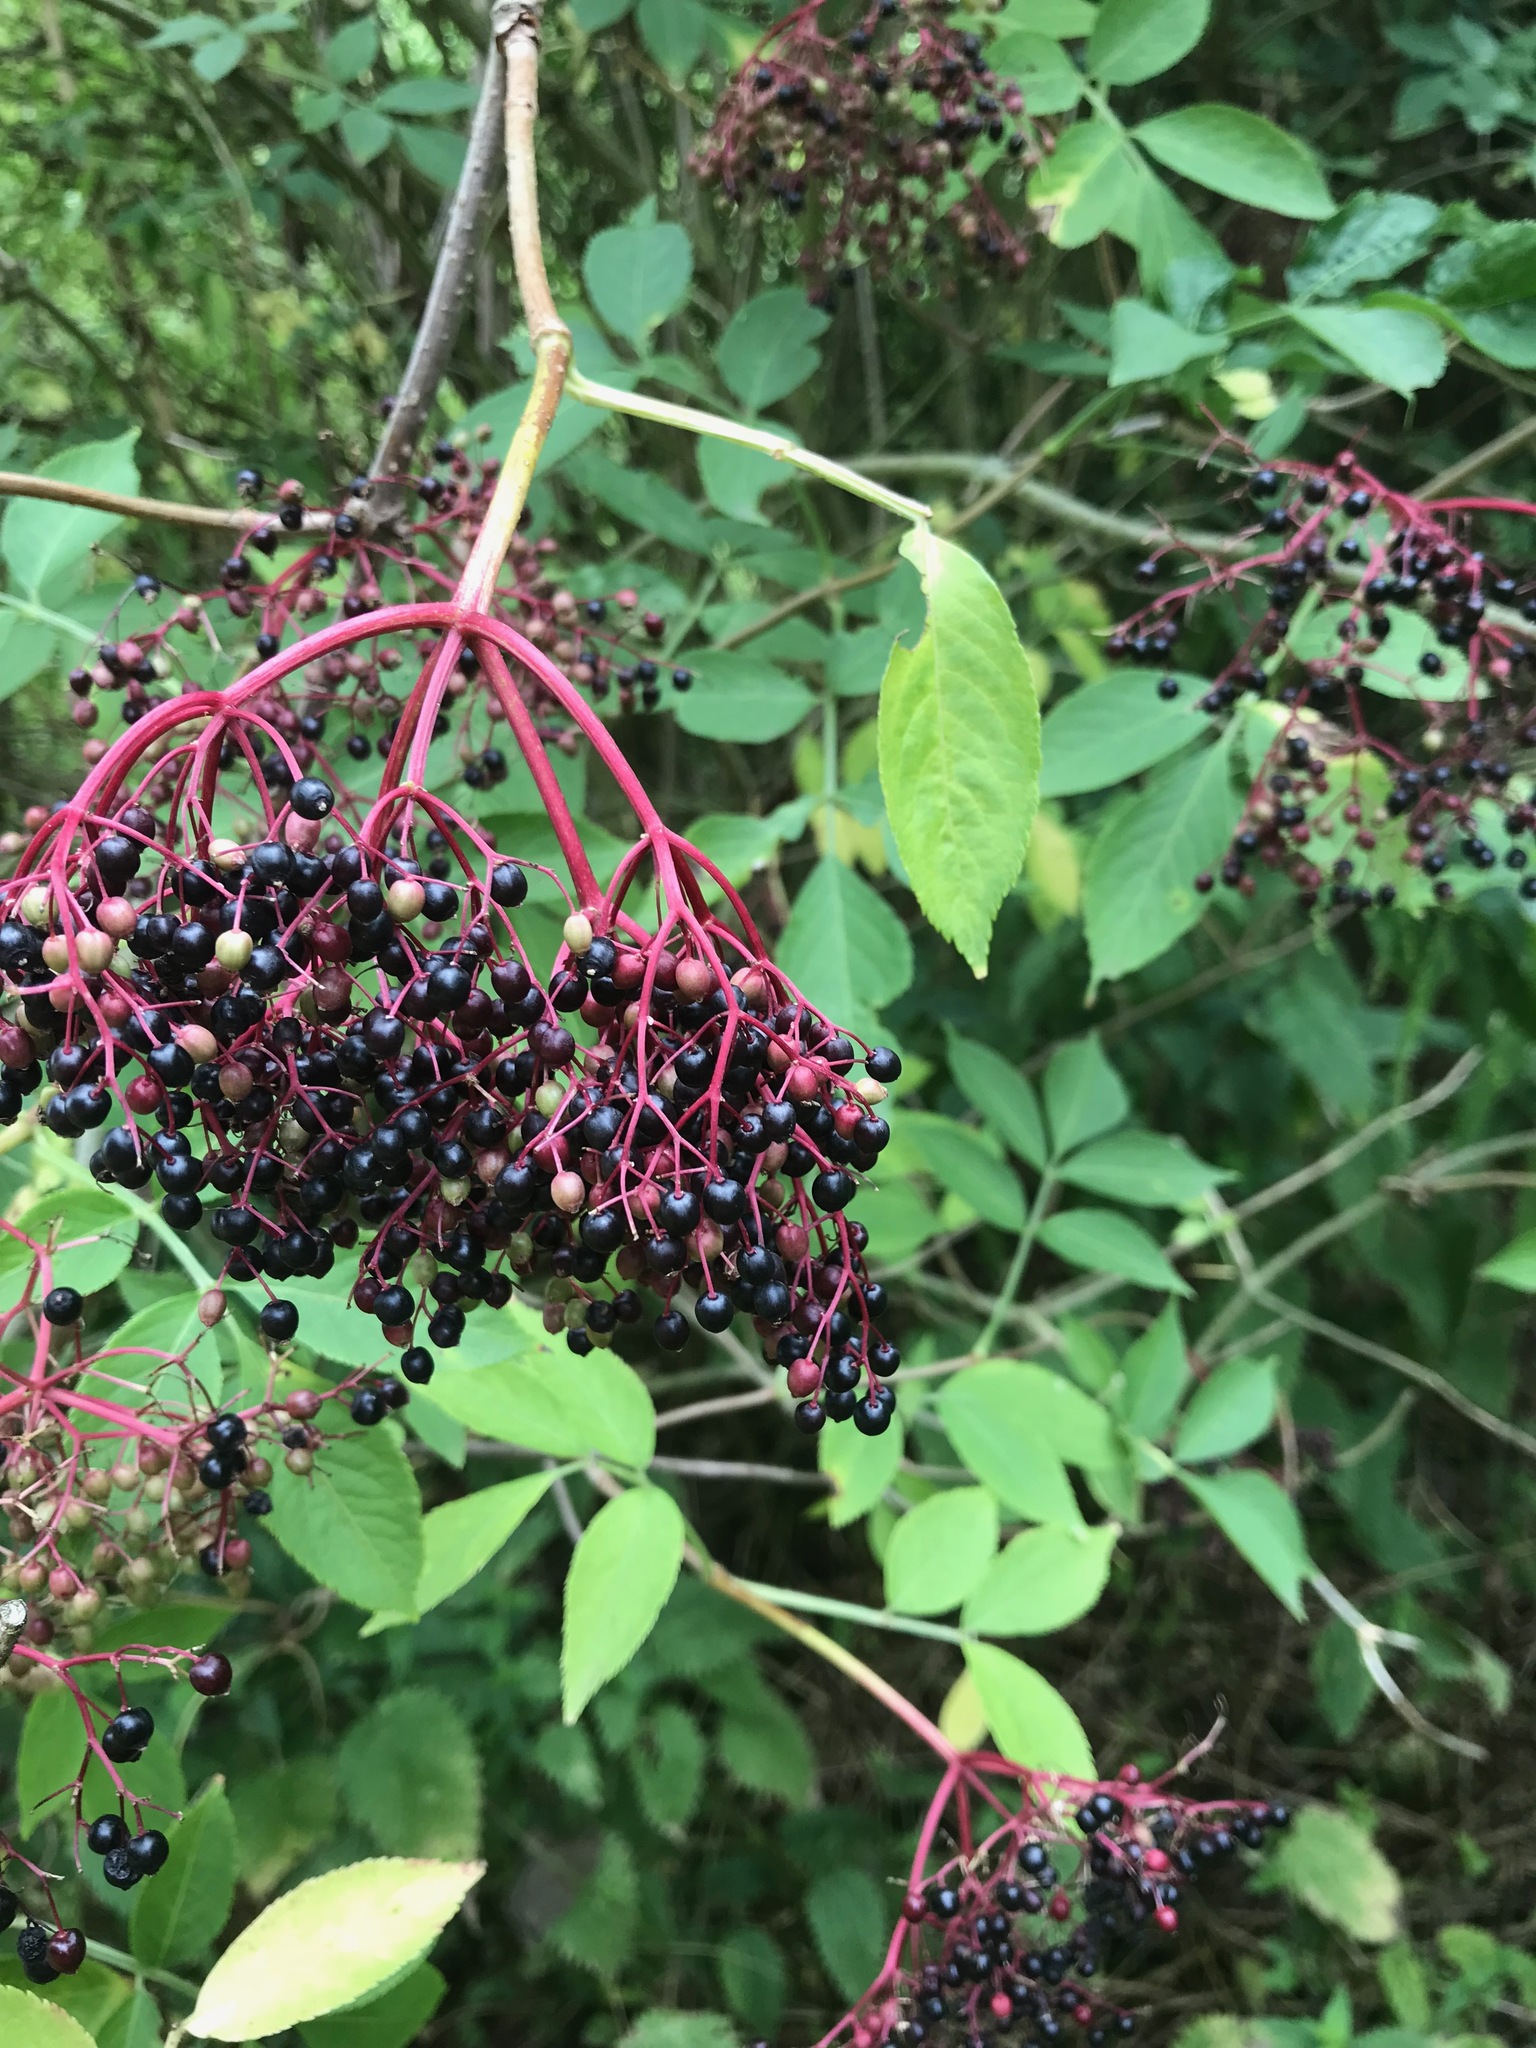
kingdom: Plantae
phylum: Tracheophyta
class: Magnoliopsida
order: Dipsacales
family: Viburnaceae
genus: Sambucus
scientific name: Sambucus nigra
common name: Elder
